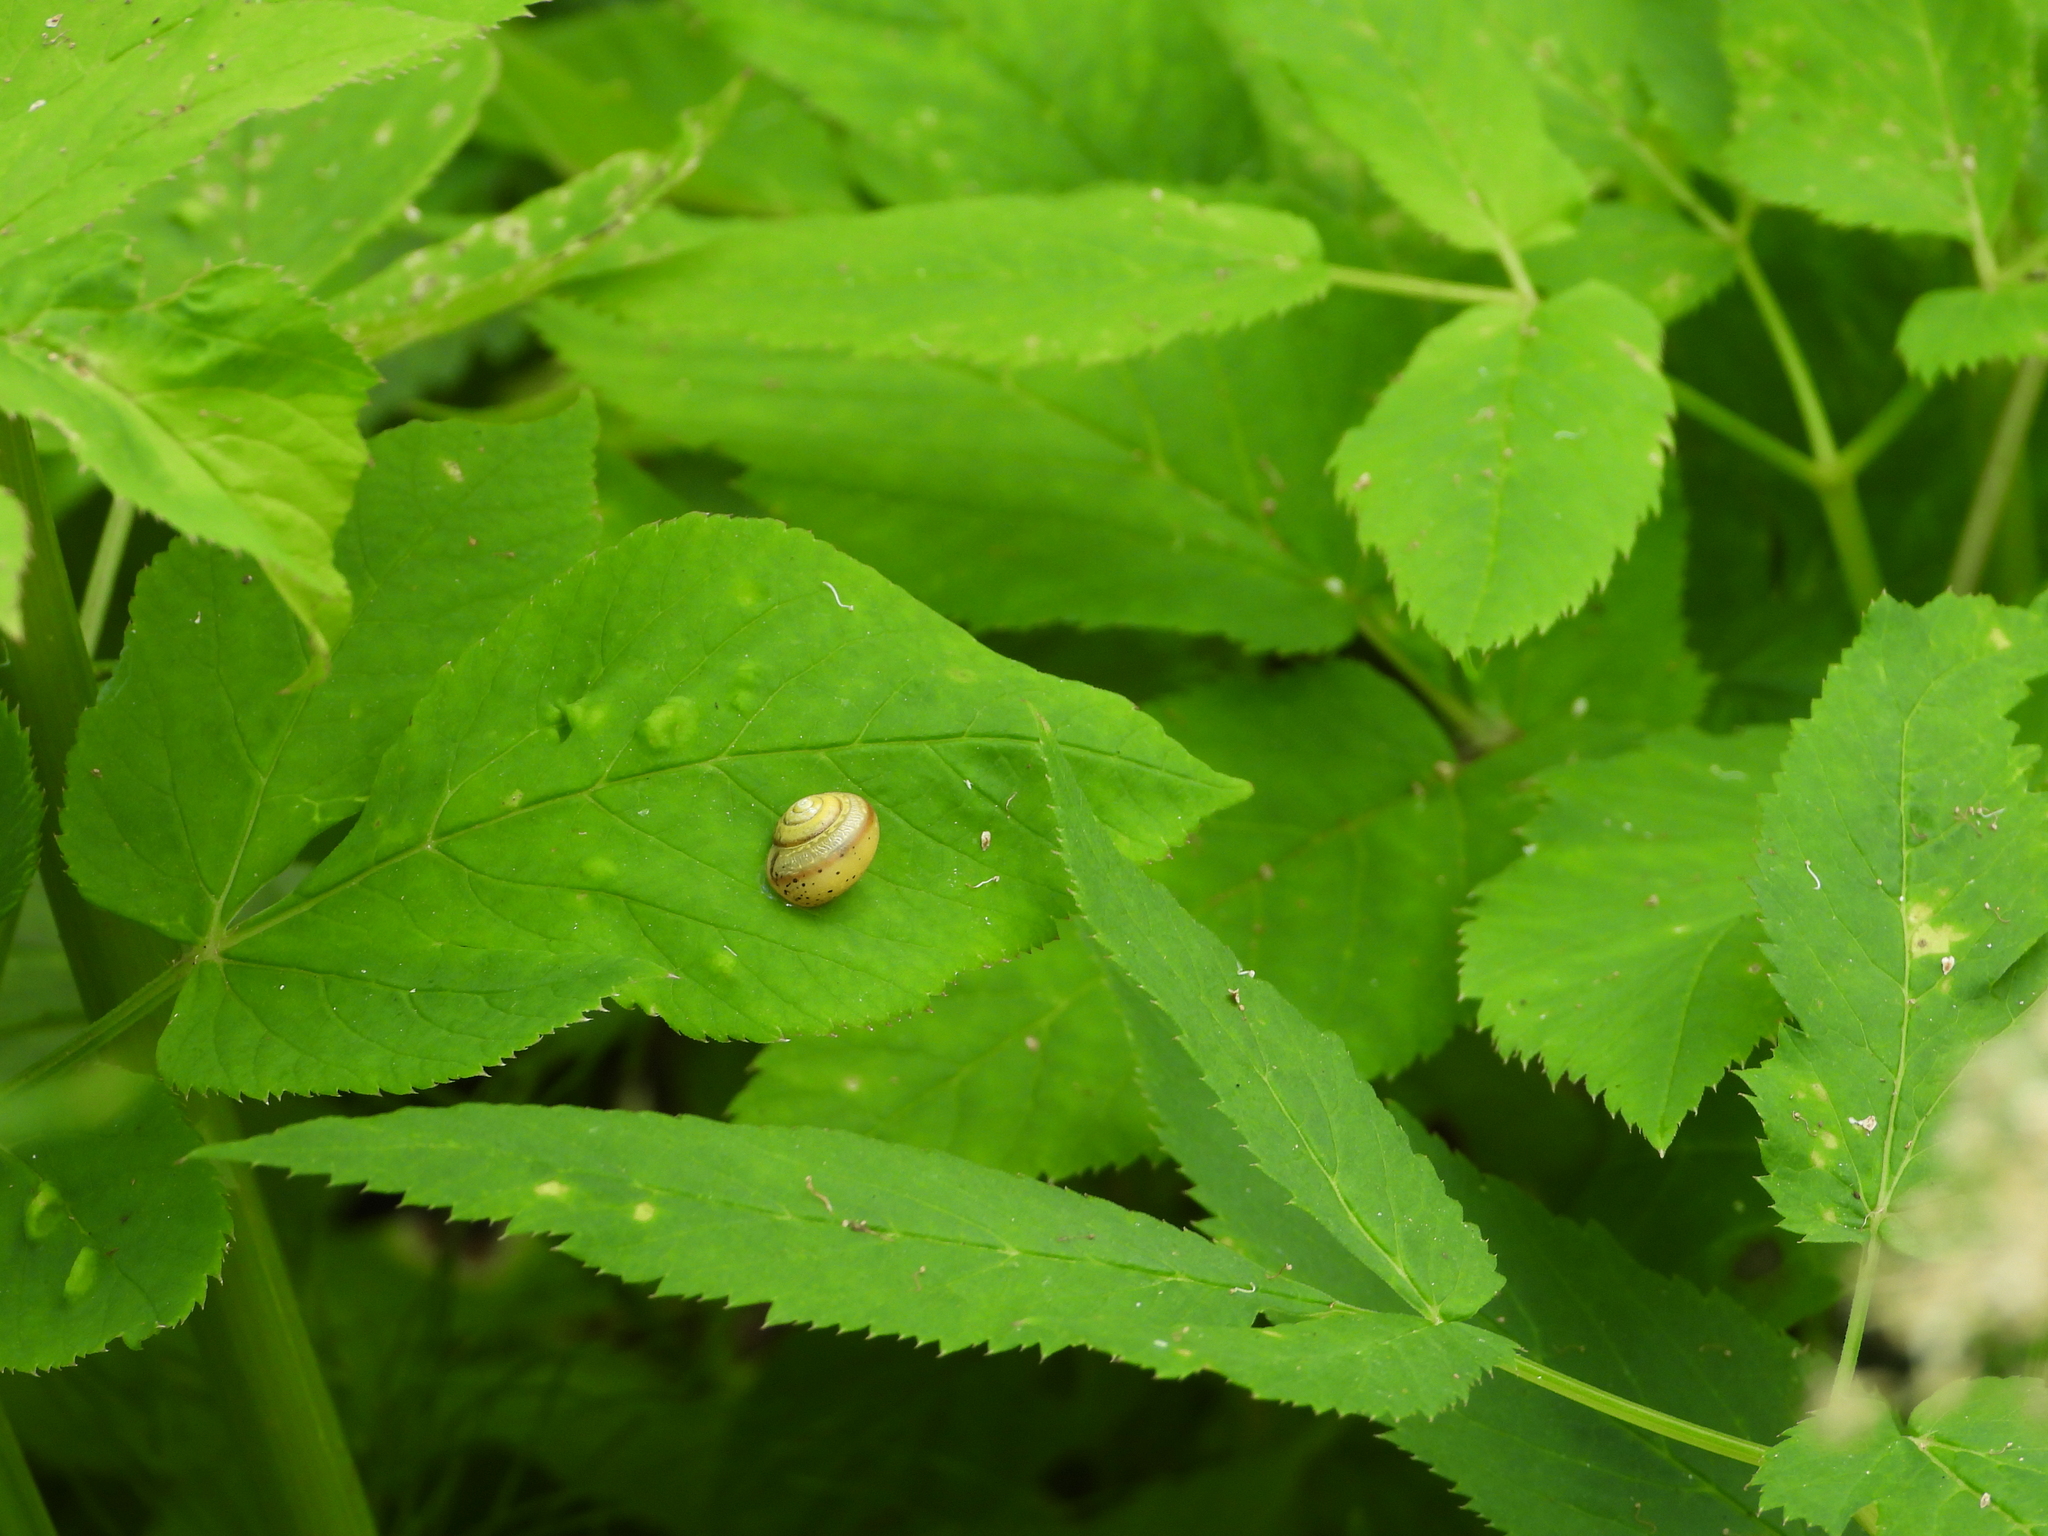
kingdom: Animalia
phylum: Mollusca
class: Gastropoda
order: Stylommatophora
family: Camaenidae
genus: Fruticicola
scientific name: Fruticicola fruticum
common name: Bush snail
